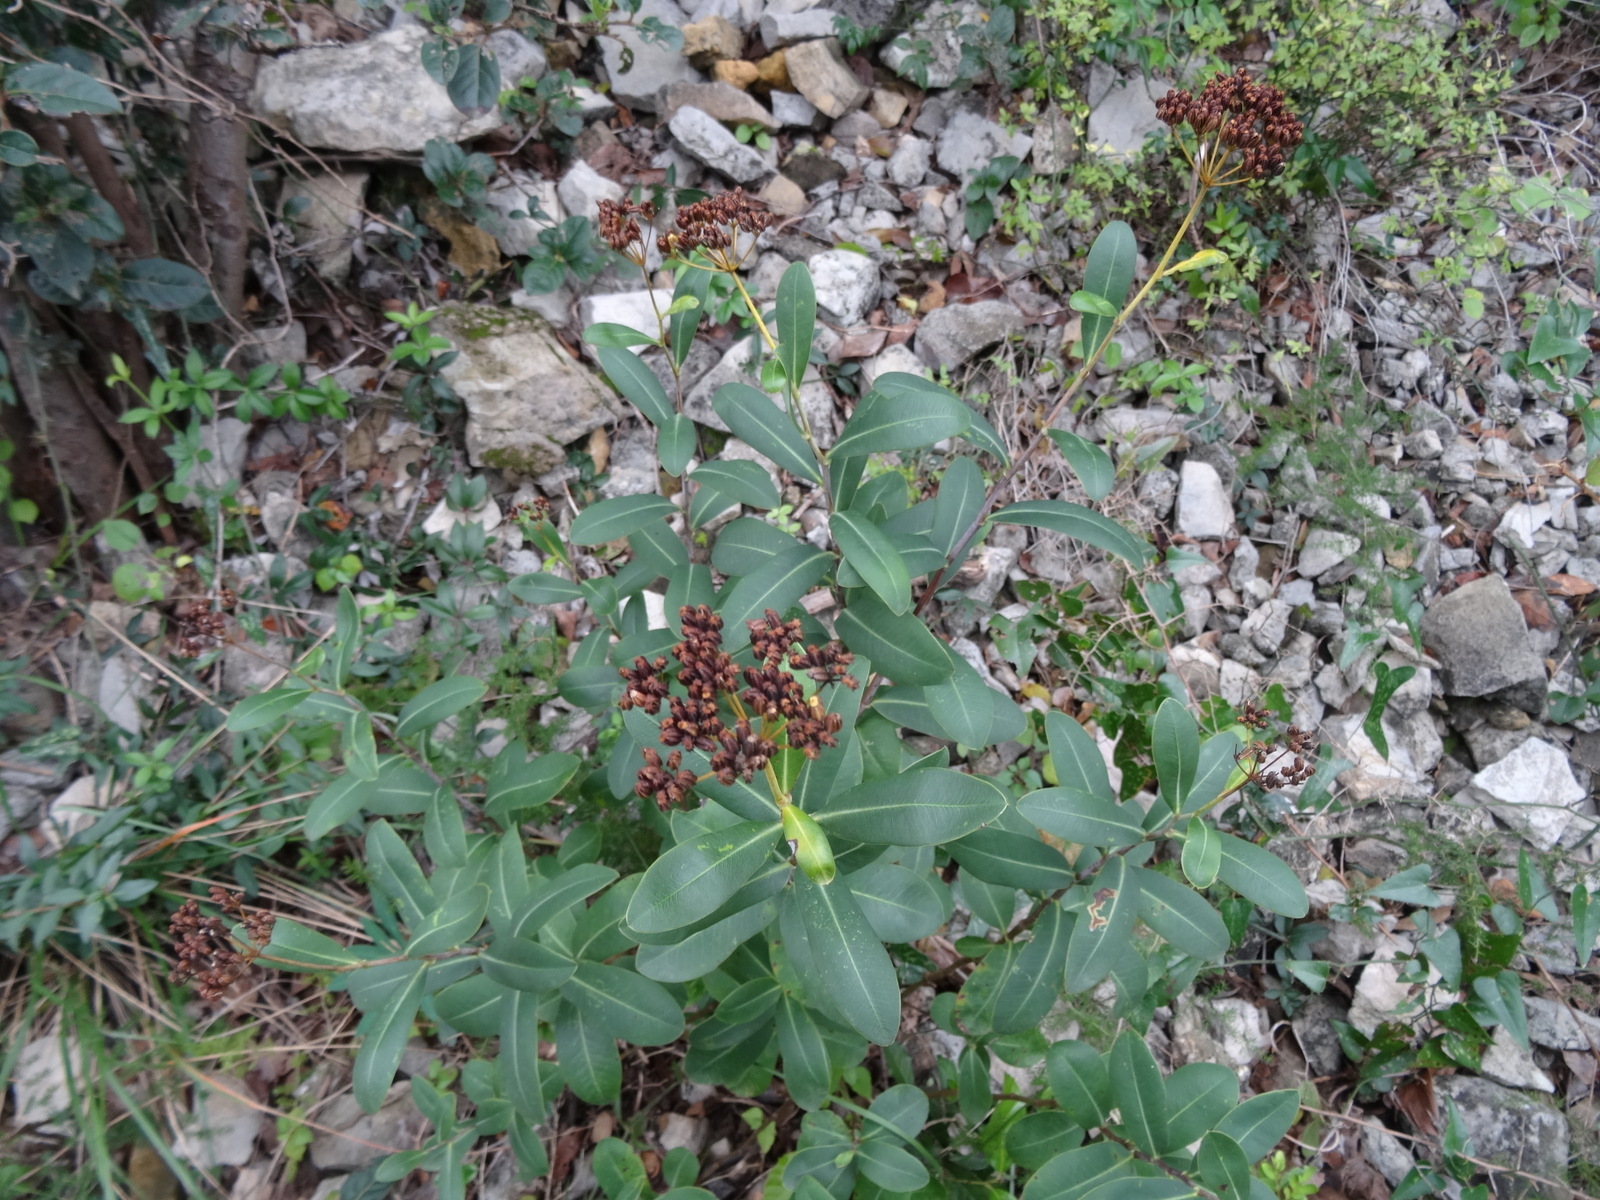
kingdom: Plantae
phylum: Tracheophyta
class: Magnoliopsida
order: Apiales
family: Apiaceae
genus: Bupleurum
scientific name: Bupleurum fruticosum
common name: Shrubby hare's-ear
